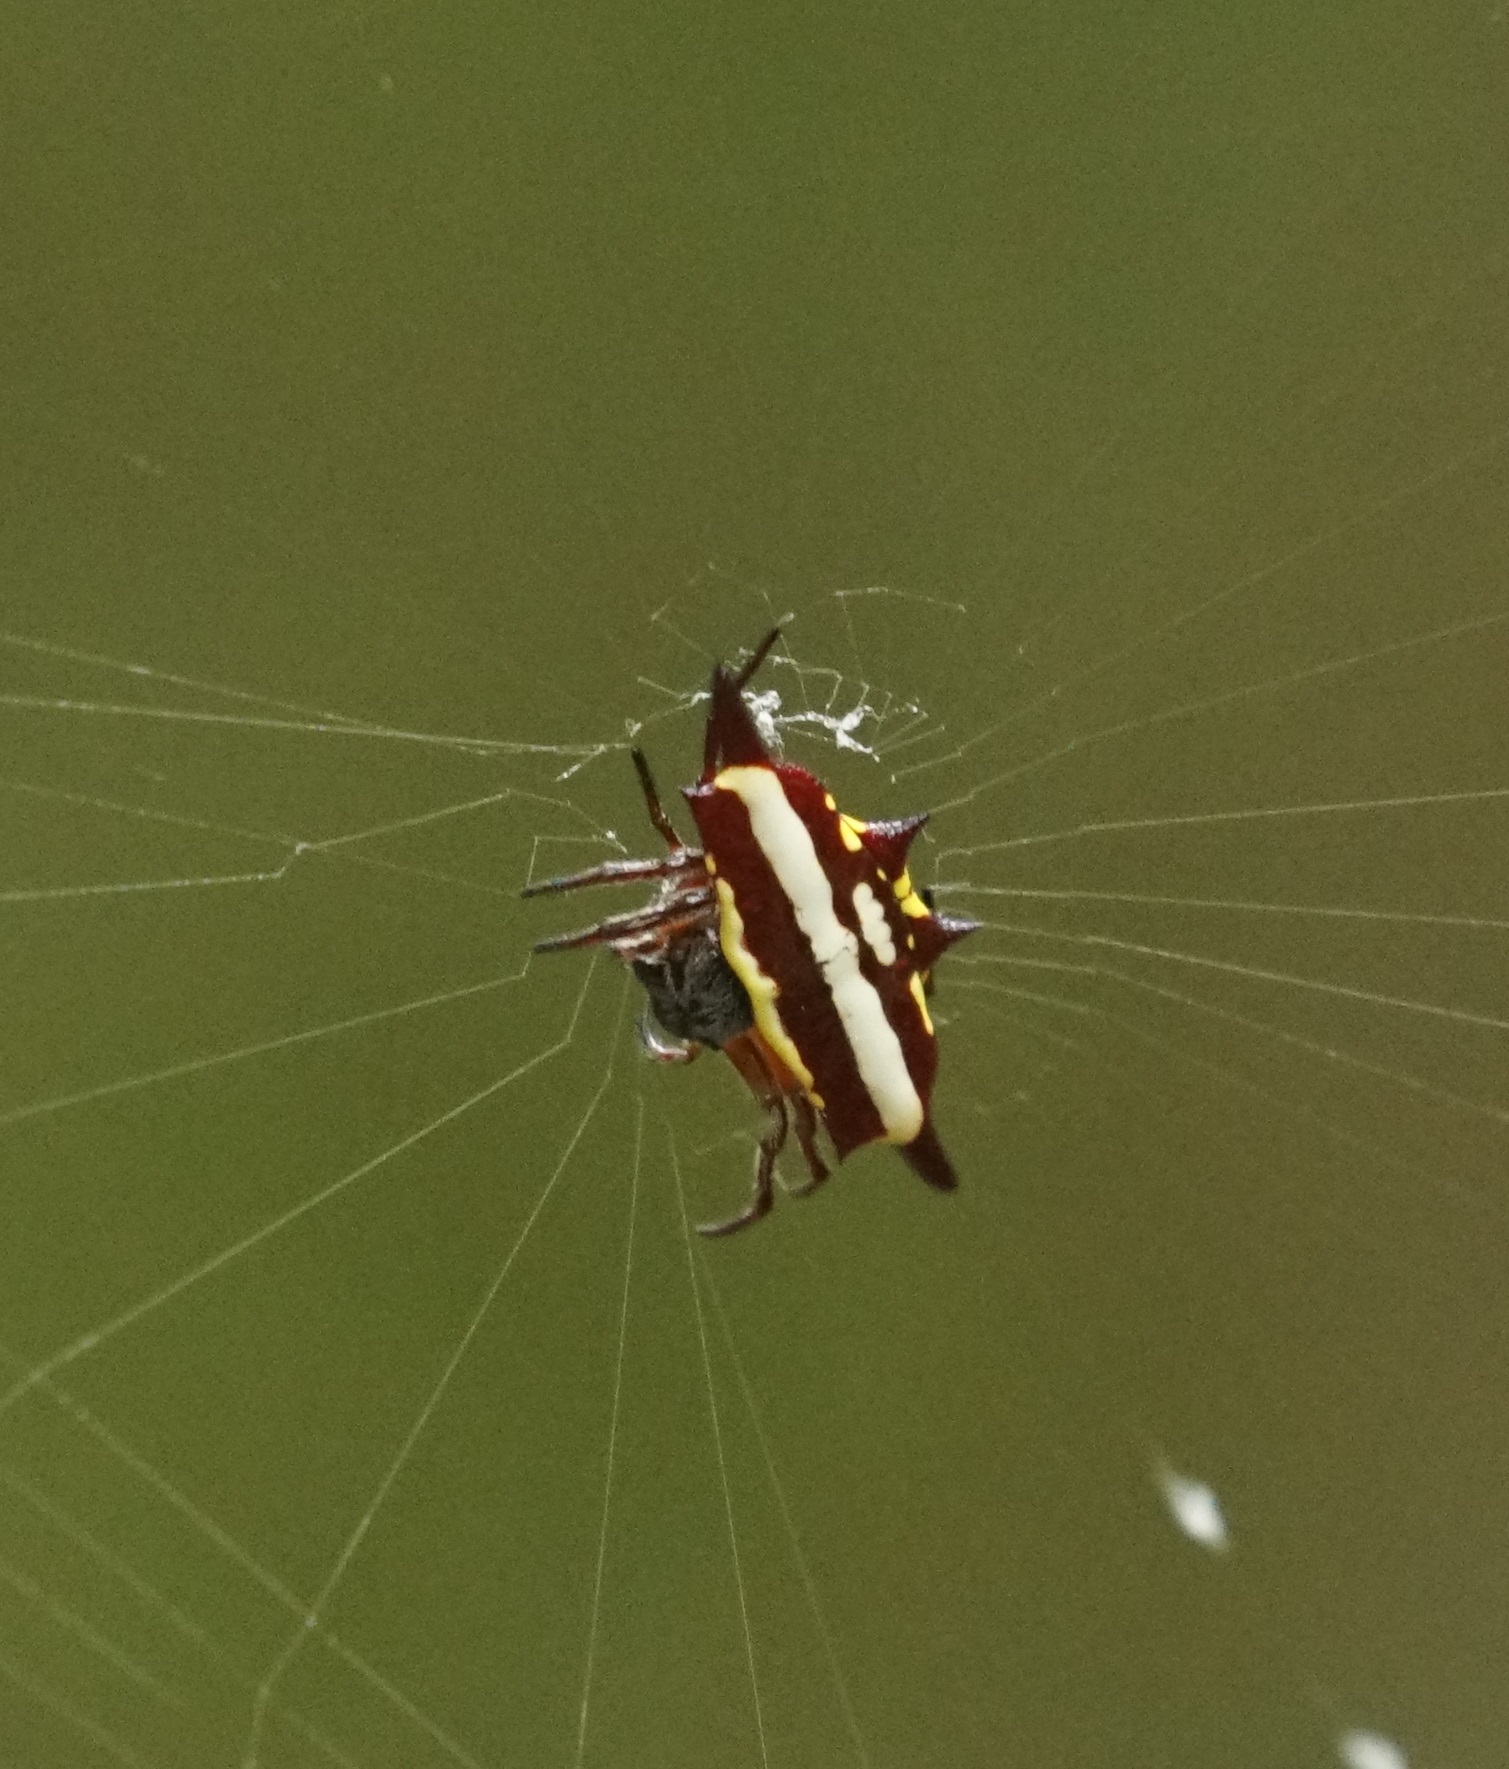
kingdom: Animalia
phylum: Arthropoda
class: Arachnida
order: Araneae
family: Araneidae
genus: Gasteracantha
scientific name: Gasteracantha fornicata
